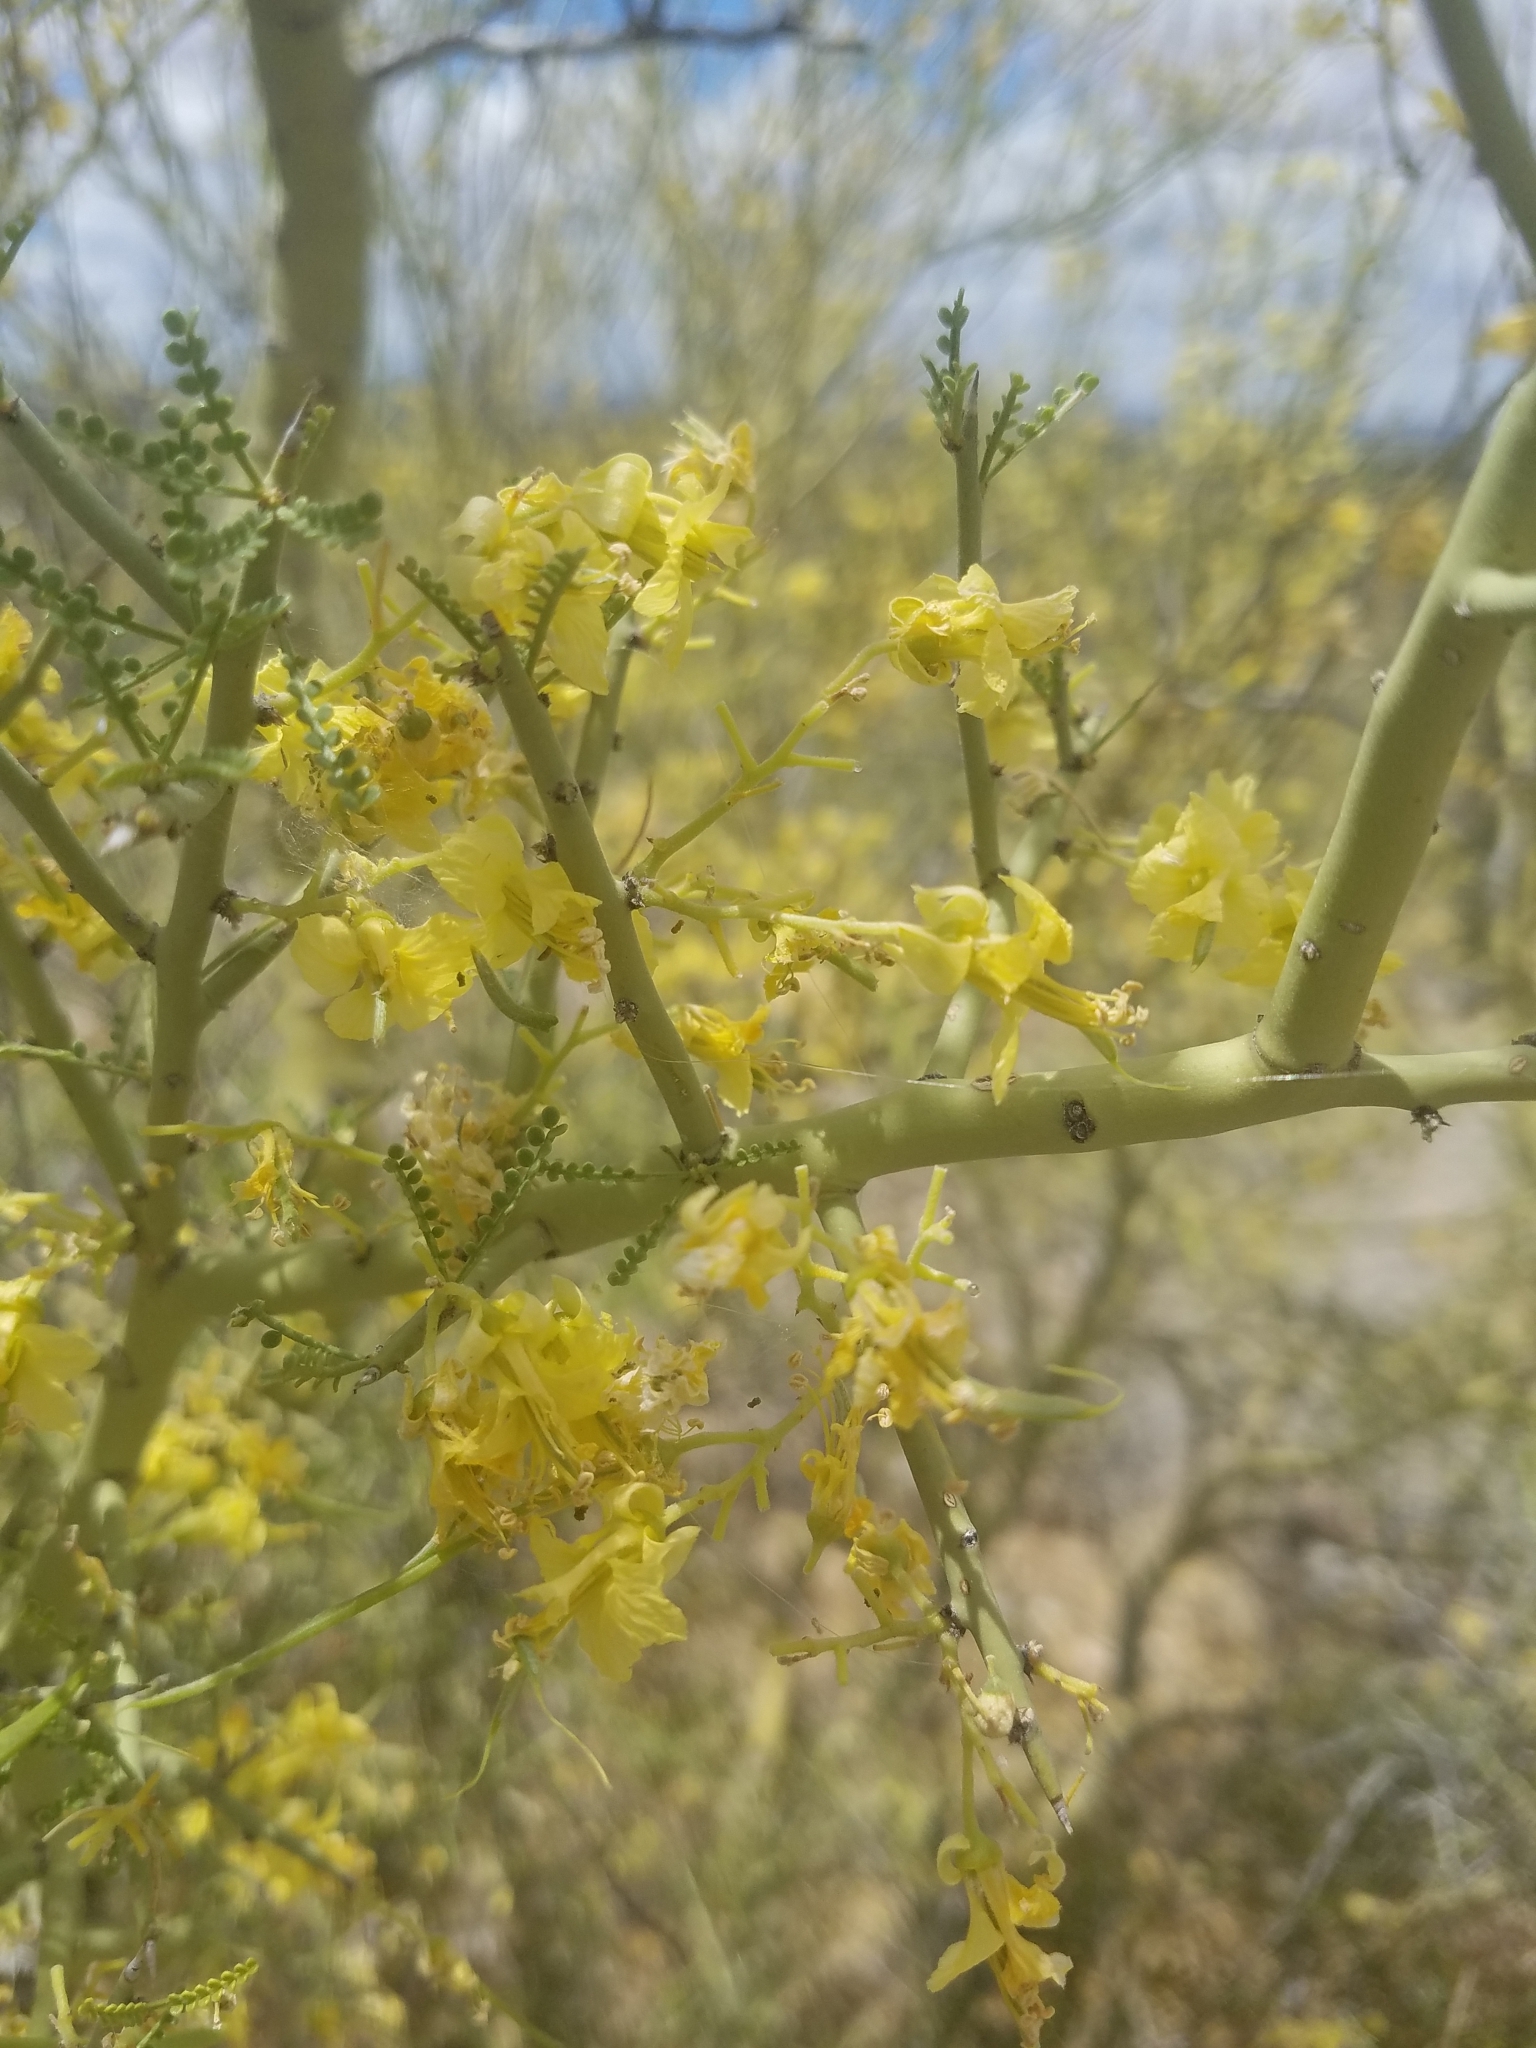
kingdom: Plantae
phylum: Tracheophyta
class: Magnoliopsida
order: Fabales
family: Fabaceae
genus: Parkinsonia
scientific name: Parkinsonia microphylla
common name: Yellow paloverde
